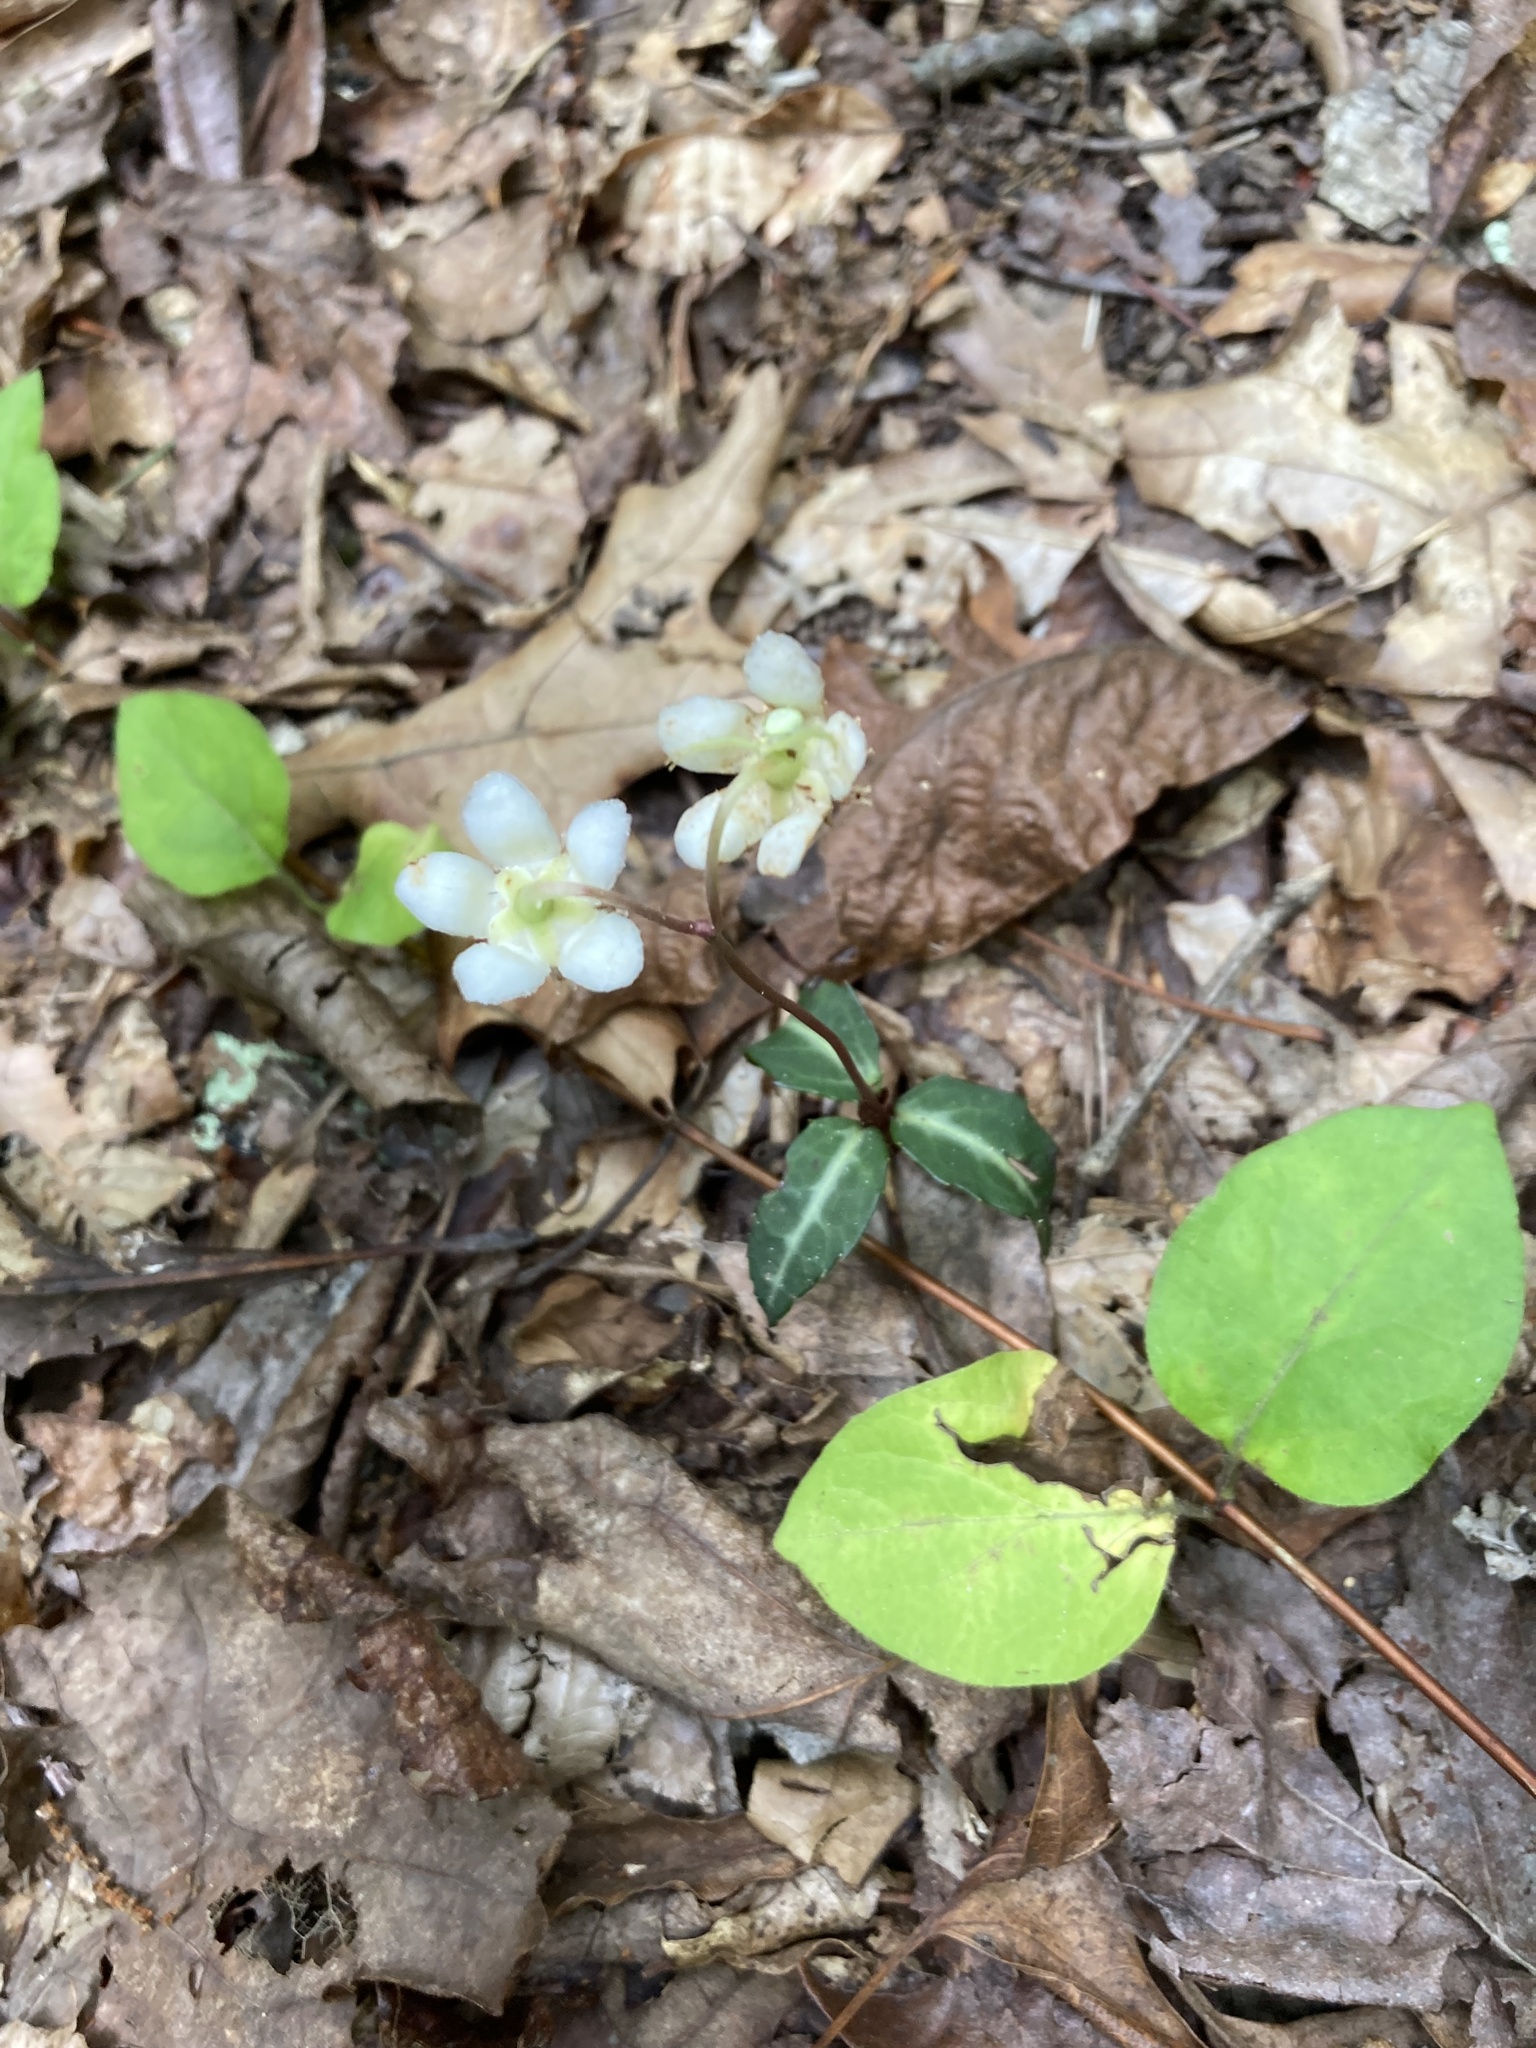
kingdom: Plantae
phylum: Tracheophyta
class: Magnoliopsida
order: Ericales
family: Ericaceae
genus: Chimaphila
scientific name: Chimaphila maculata
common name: Spotted pipsissewa
